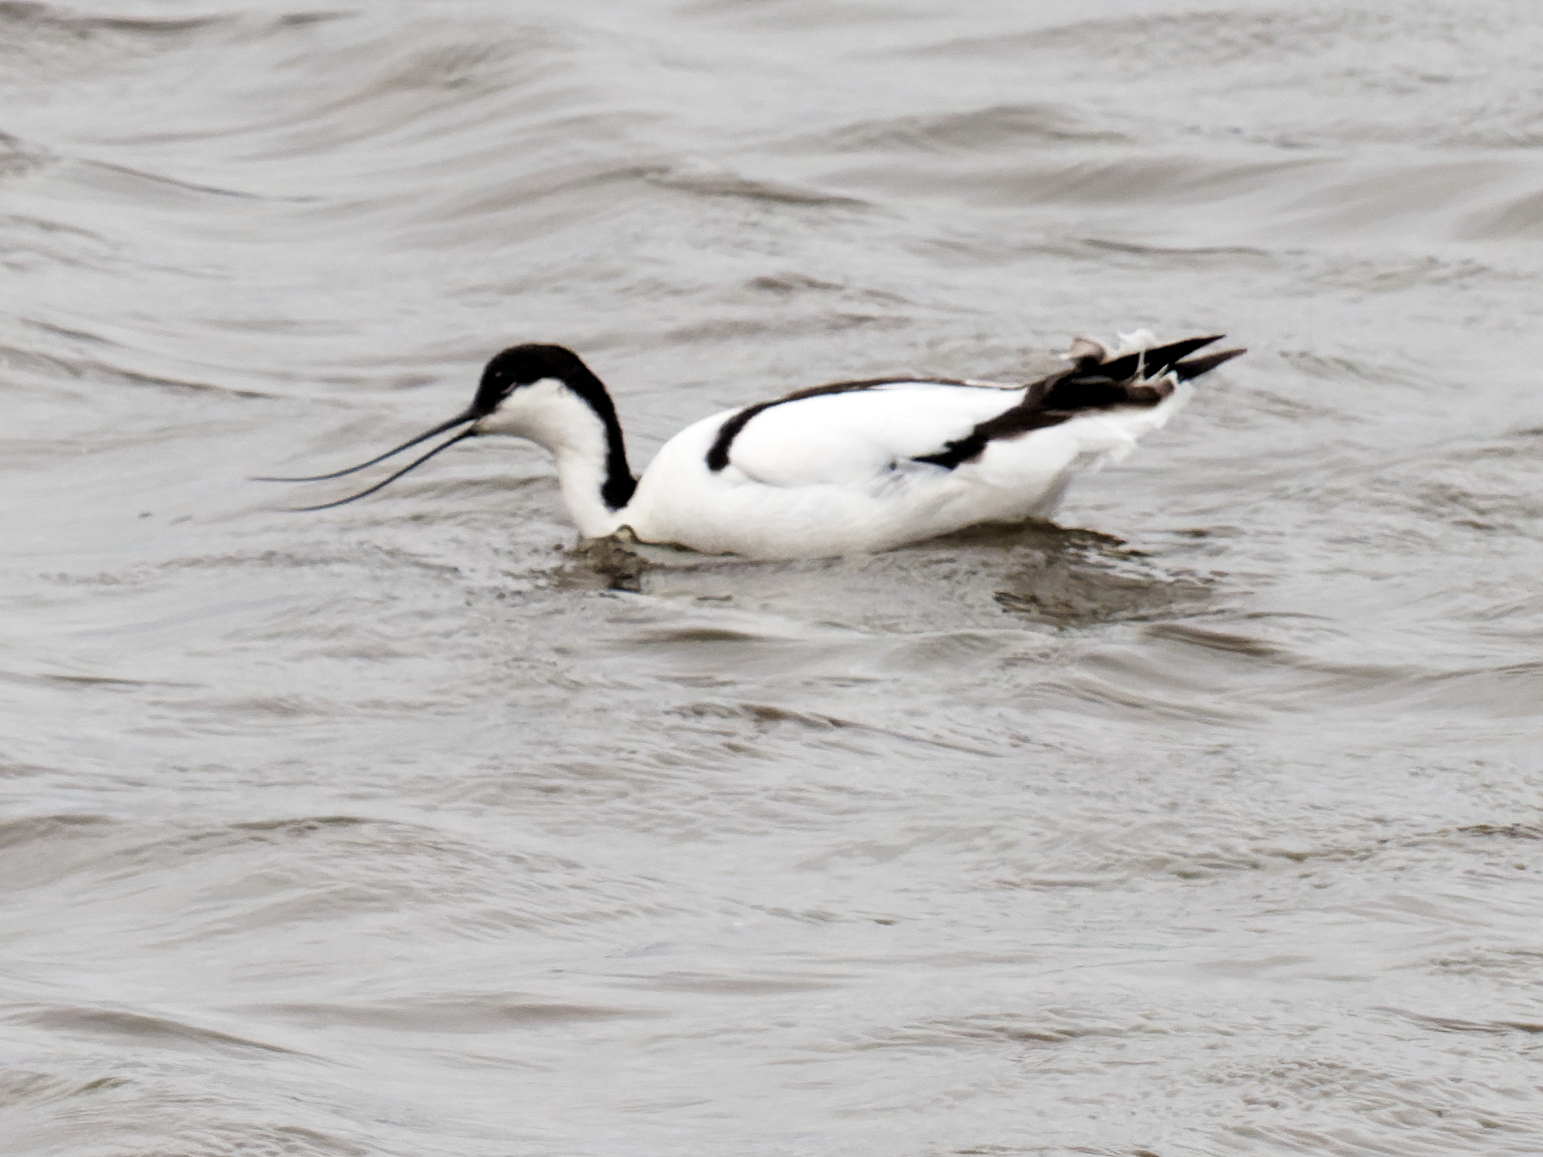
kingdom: Animalia
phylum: Chordata
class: Aves
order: Charadriiformes
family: Recurvirostridae
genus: Recurvirostra
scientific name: Recurvirostra avosetta
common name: Pied avocet
